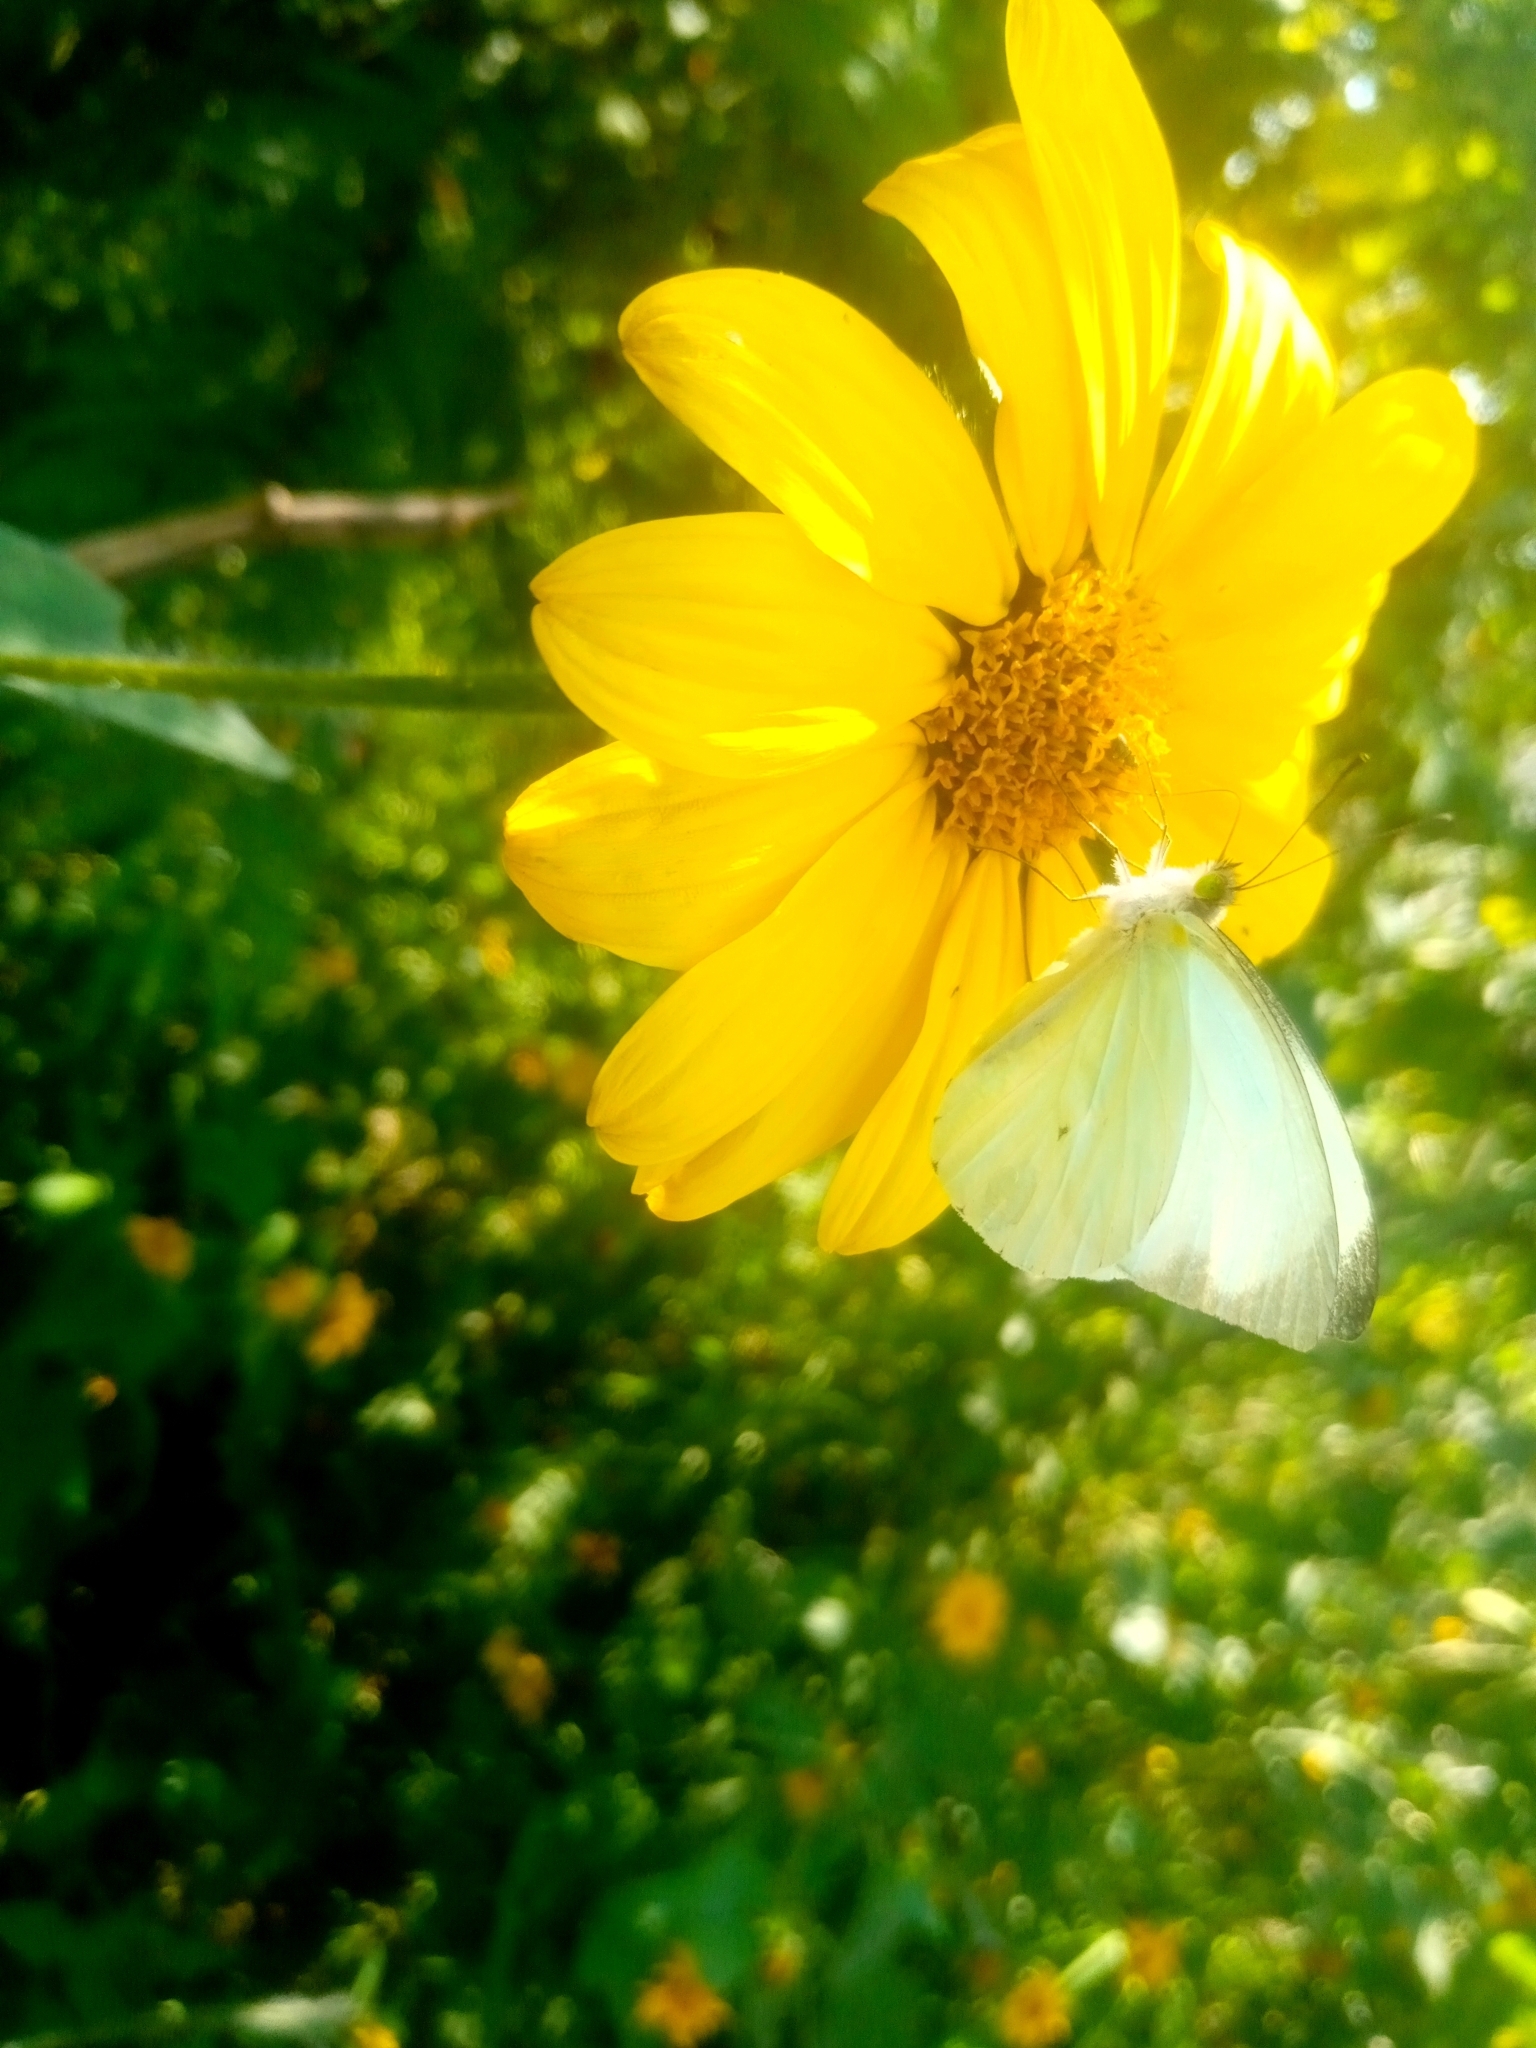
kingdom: Animalia
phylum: Arthropoda
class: Insecta
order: Lepidoptera
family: Pieridae
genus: Leptophobia
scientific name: Leptophobia aripa
